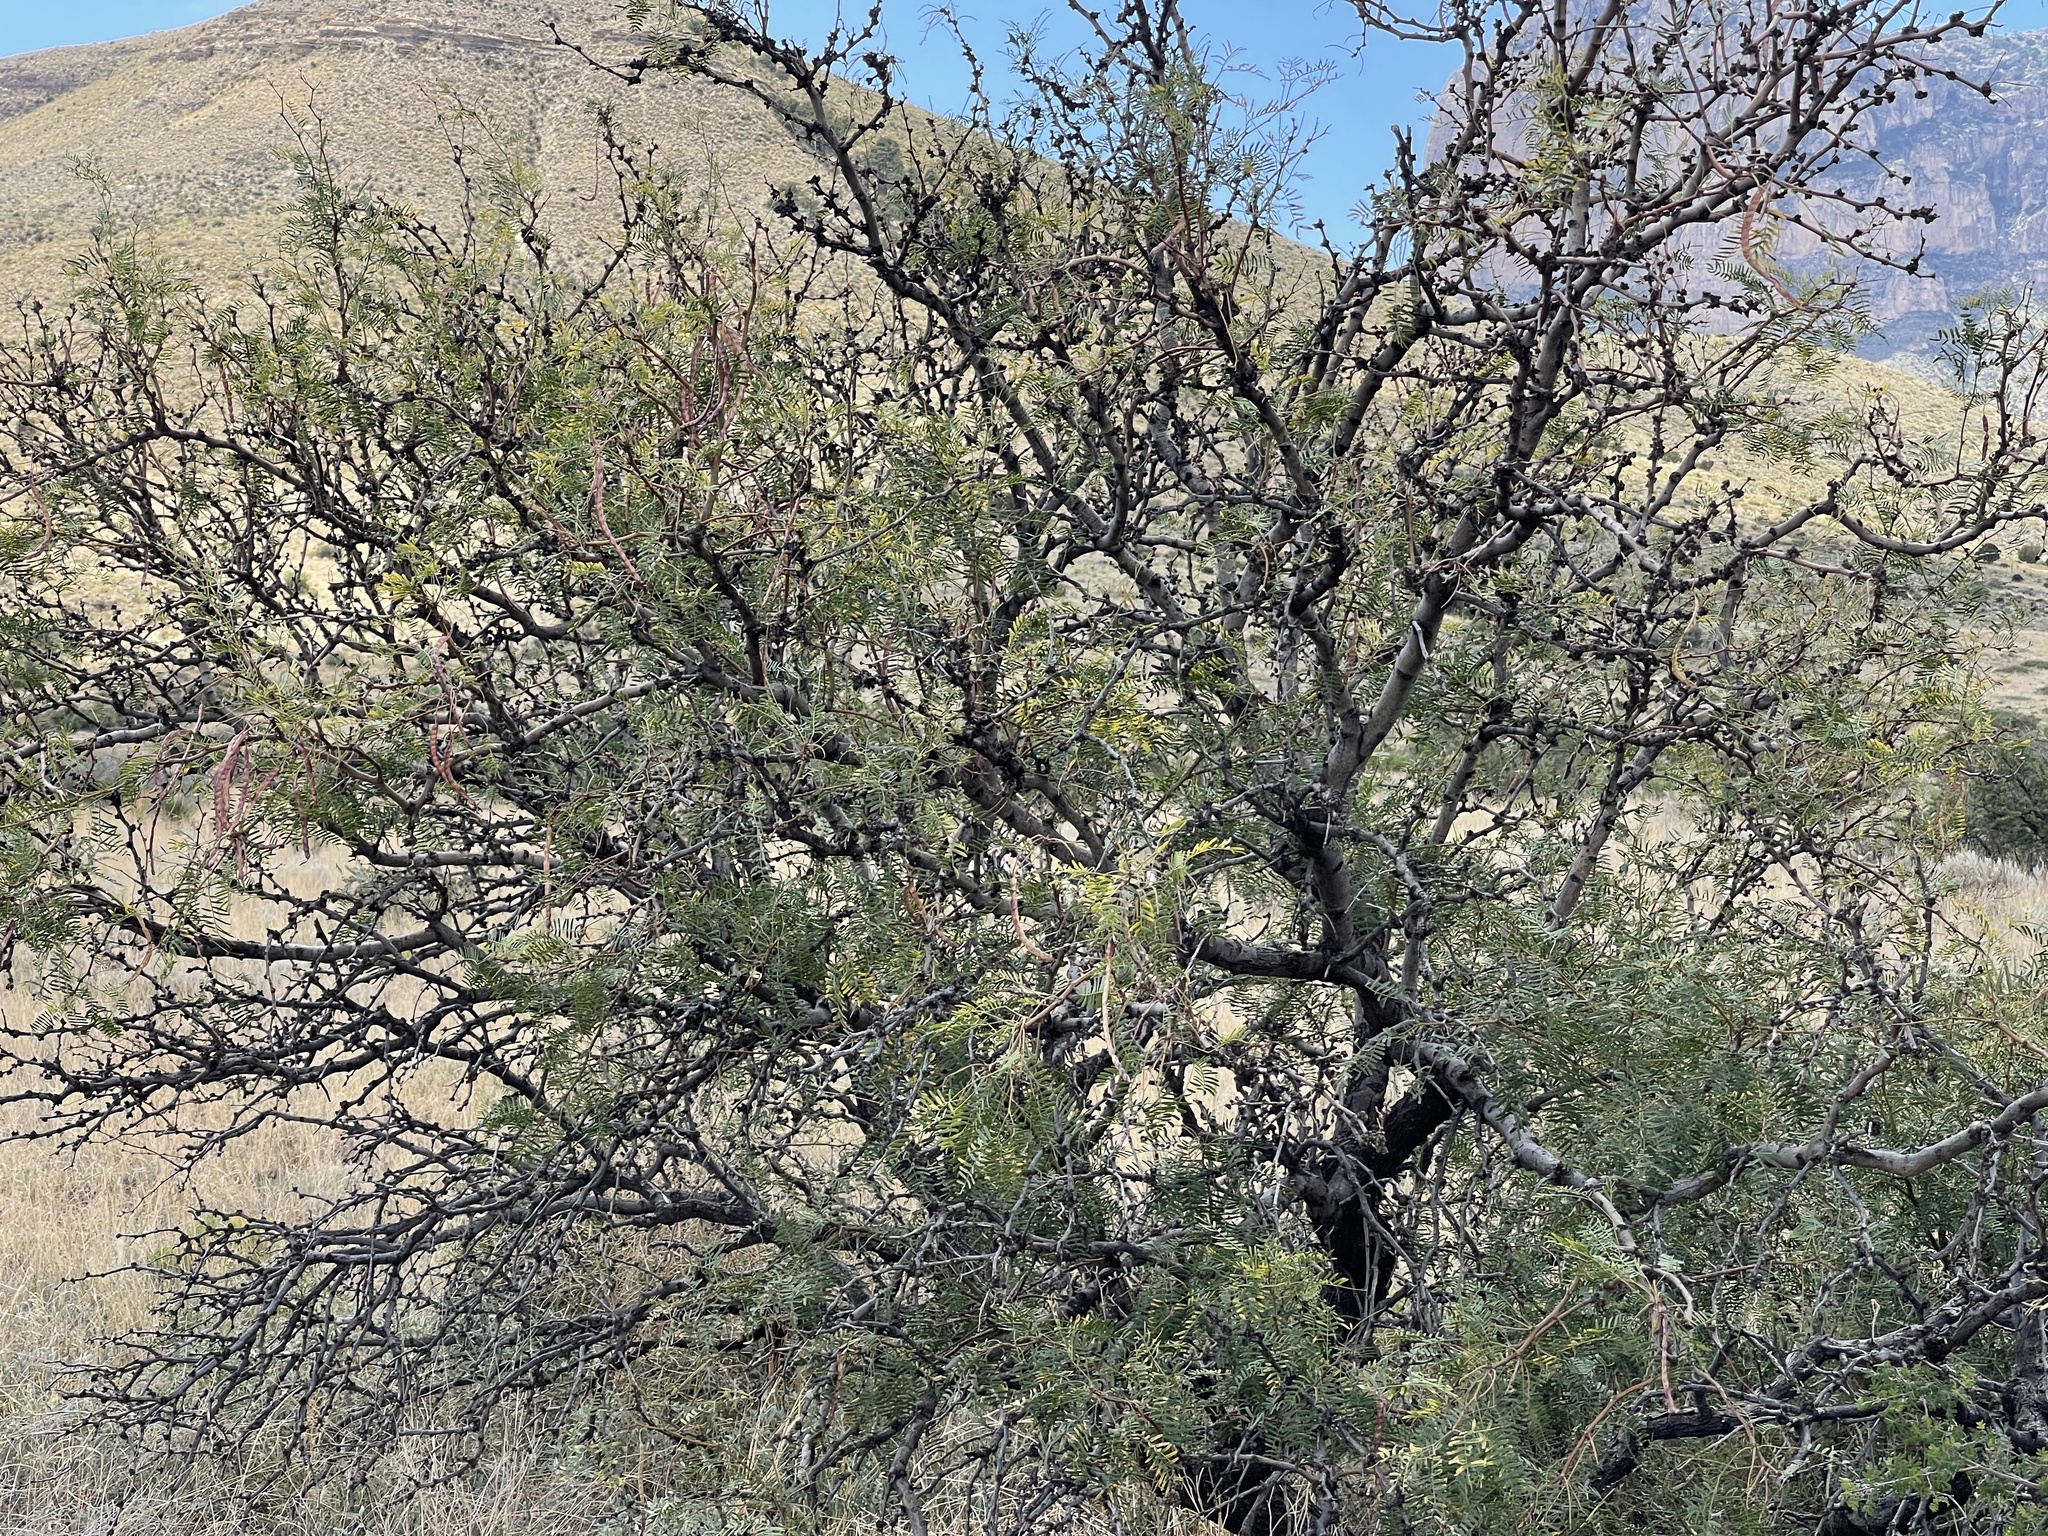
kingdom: Plantae
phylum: Tracheophyta
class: Magnoliopsida
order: Fabales
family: Fabaceae
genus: Prosopis
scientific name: Prosopis glandulosa
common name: Honey mesquite
